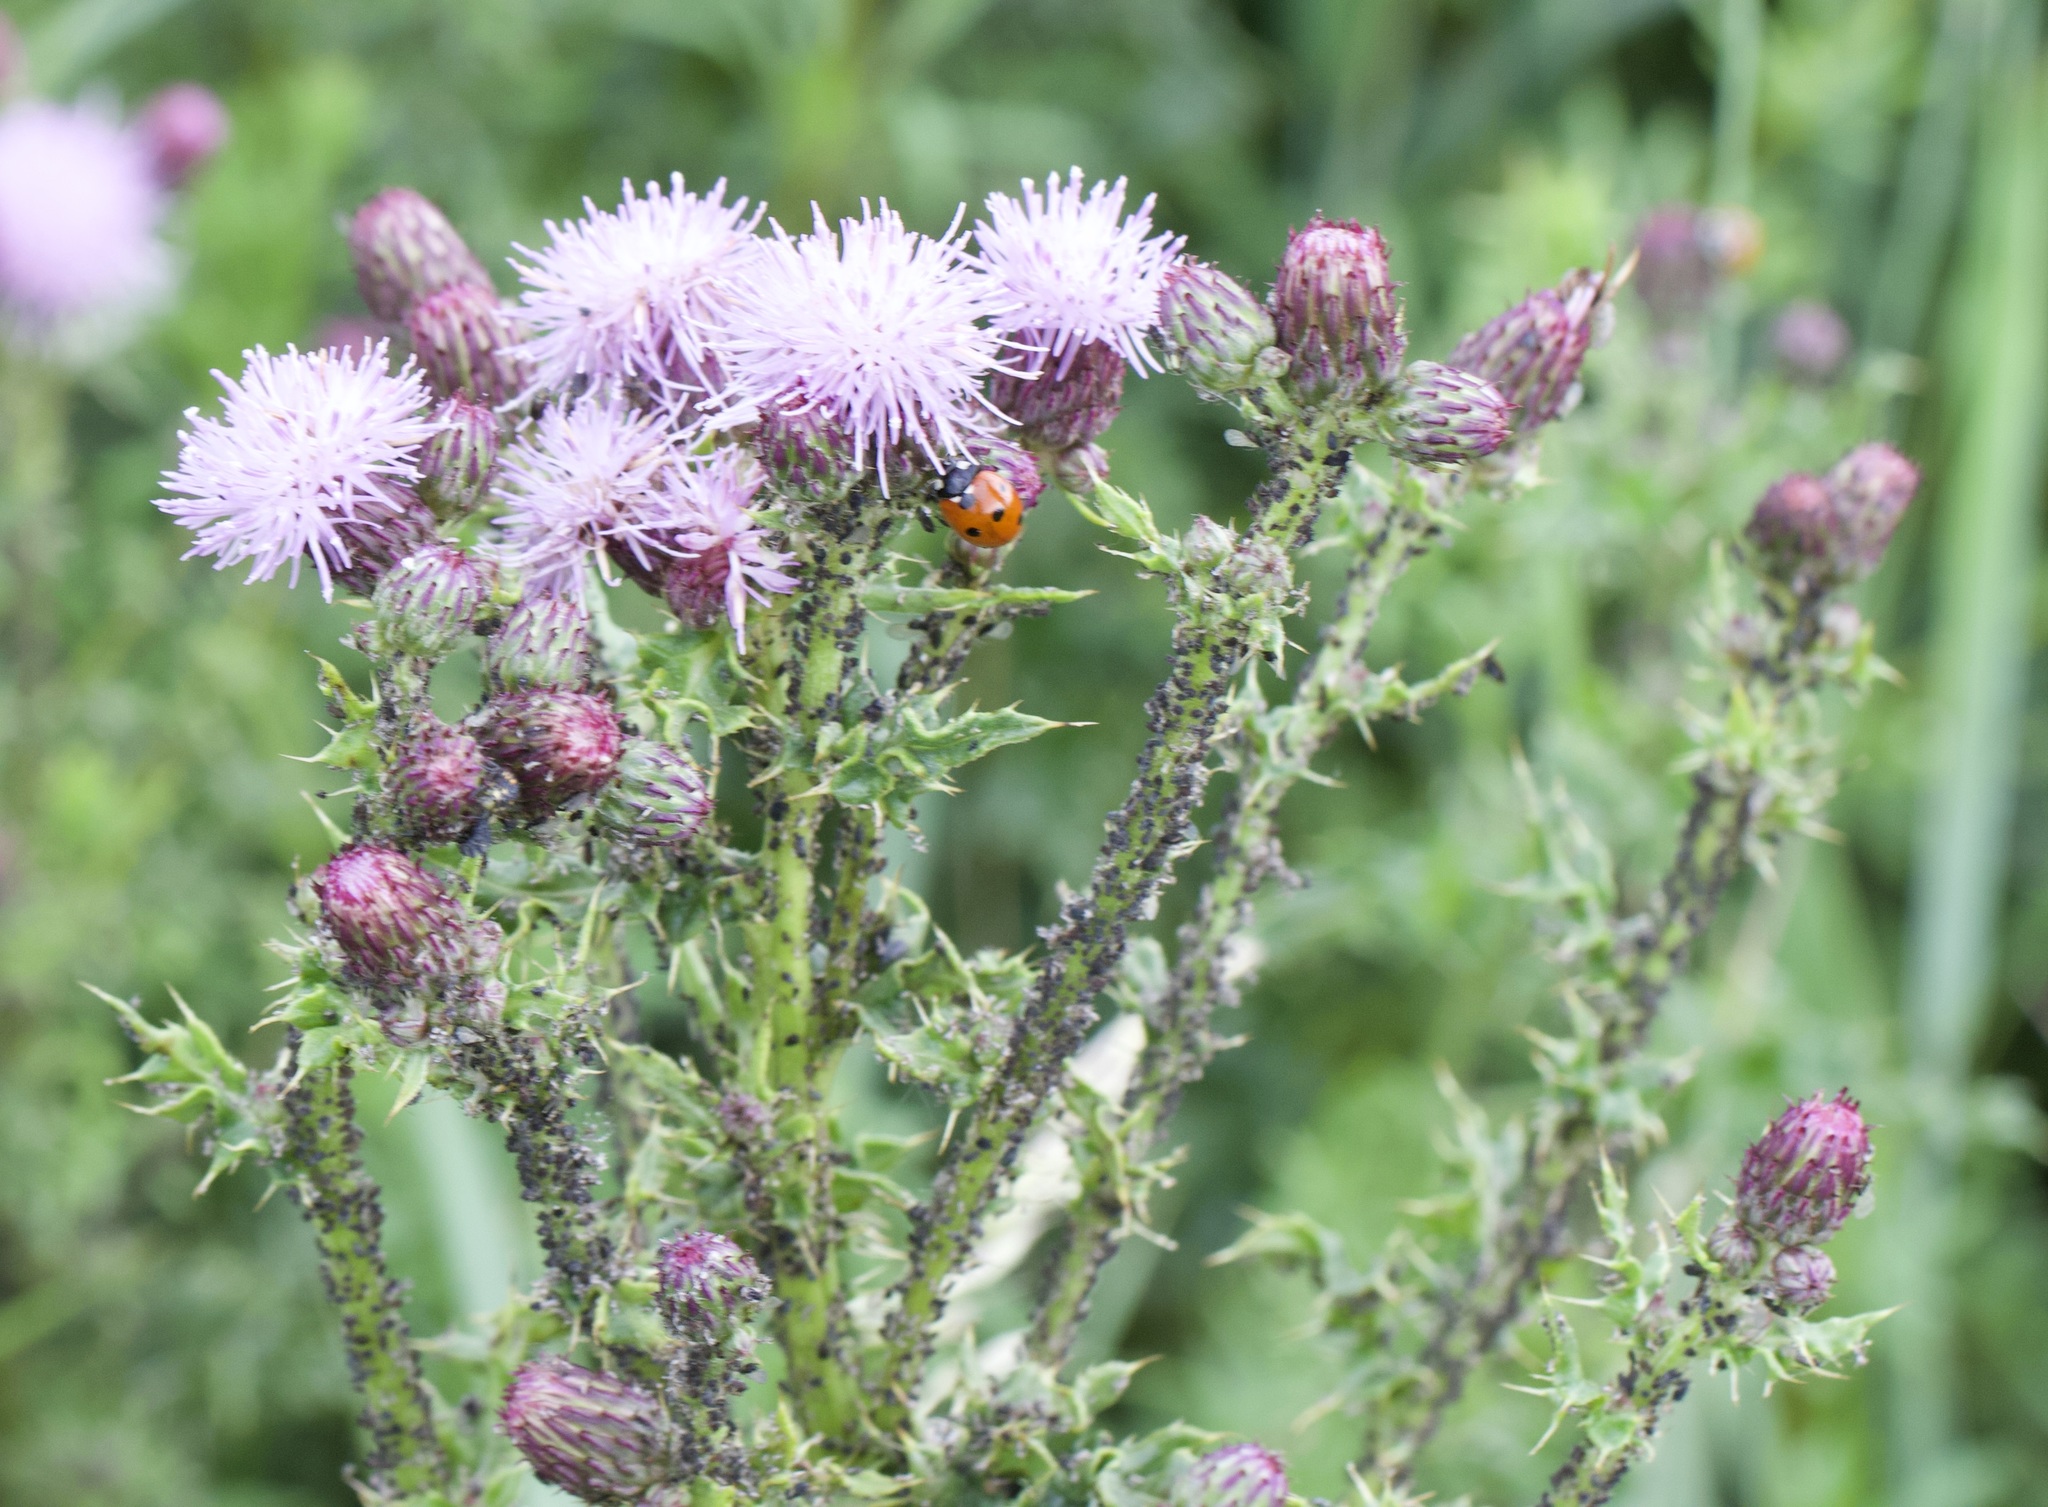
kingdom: Plantae
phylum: Tracheophyta
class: Magnoliopsida
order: Asterales
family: Asteraceae
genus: Cirsium
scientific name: Cirsium arvense
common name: Creeping thistle
